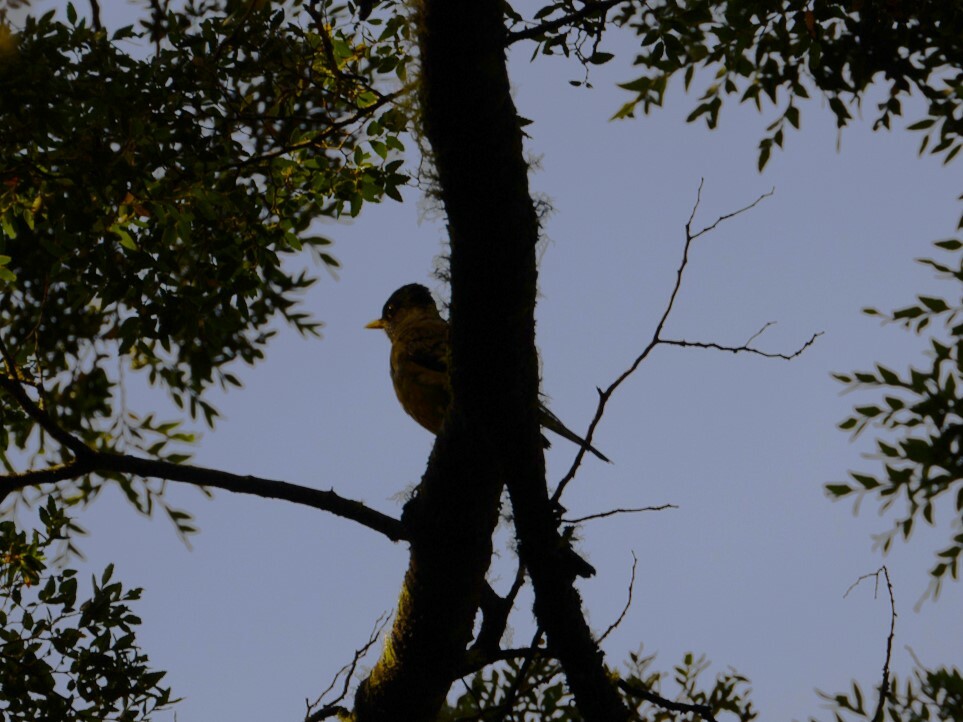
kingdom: Animalia
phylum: Chordata
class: Aves
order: Passeriformes
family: Turdidae
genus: Turdus
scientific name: Turdus falcklandii
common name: Austral thrush
